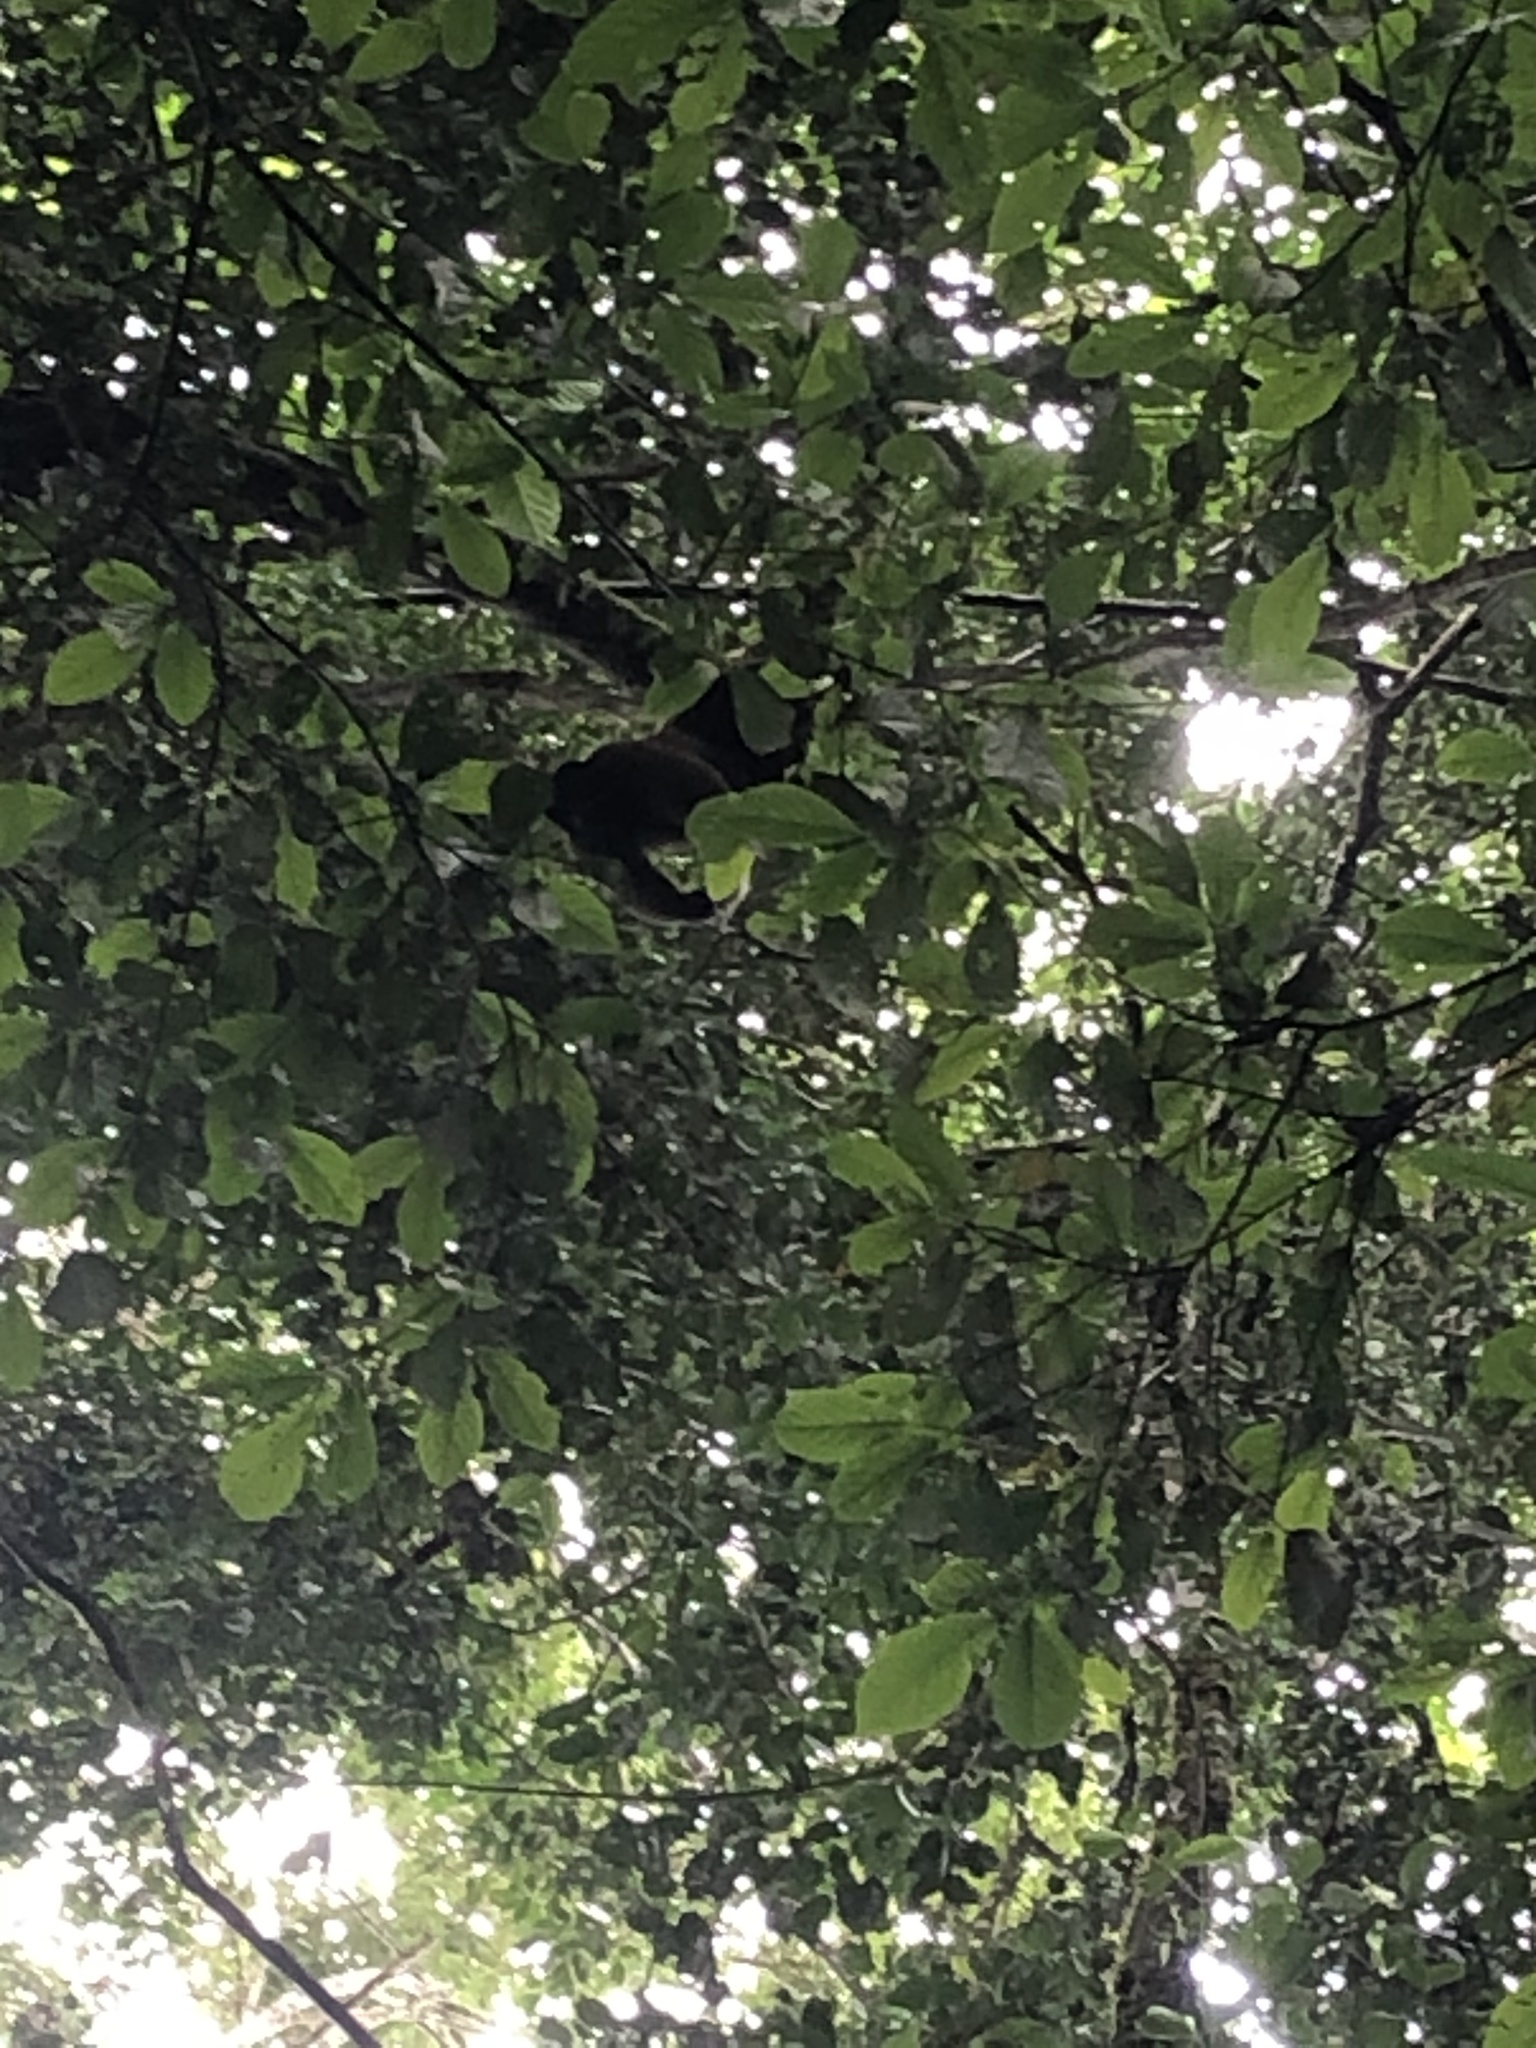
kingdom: Animalia
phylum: Chordata
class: Mammalia
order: Primates
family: Atelidae
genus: Lagothrix
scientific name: Lagothrix lagothricha
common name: Brown woolly monkey
